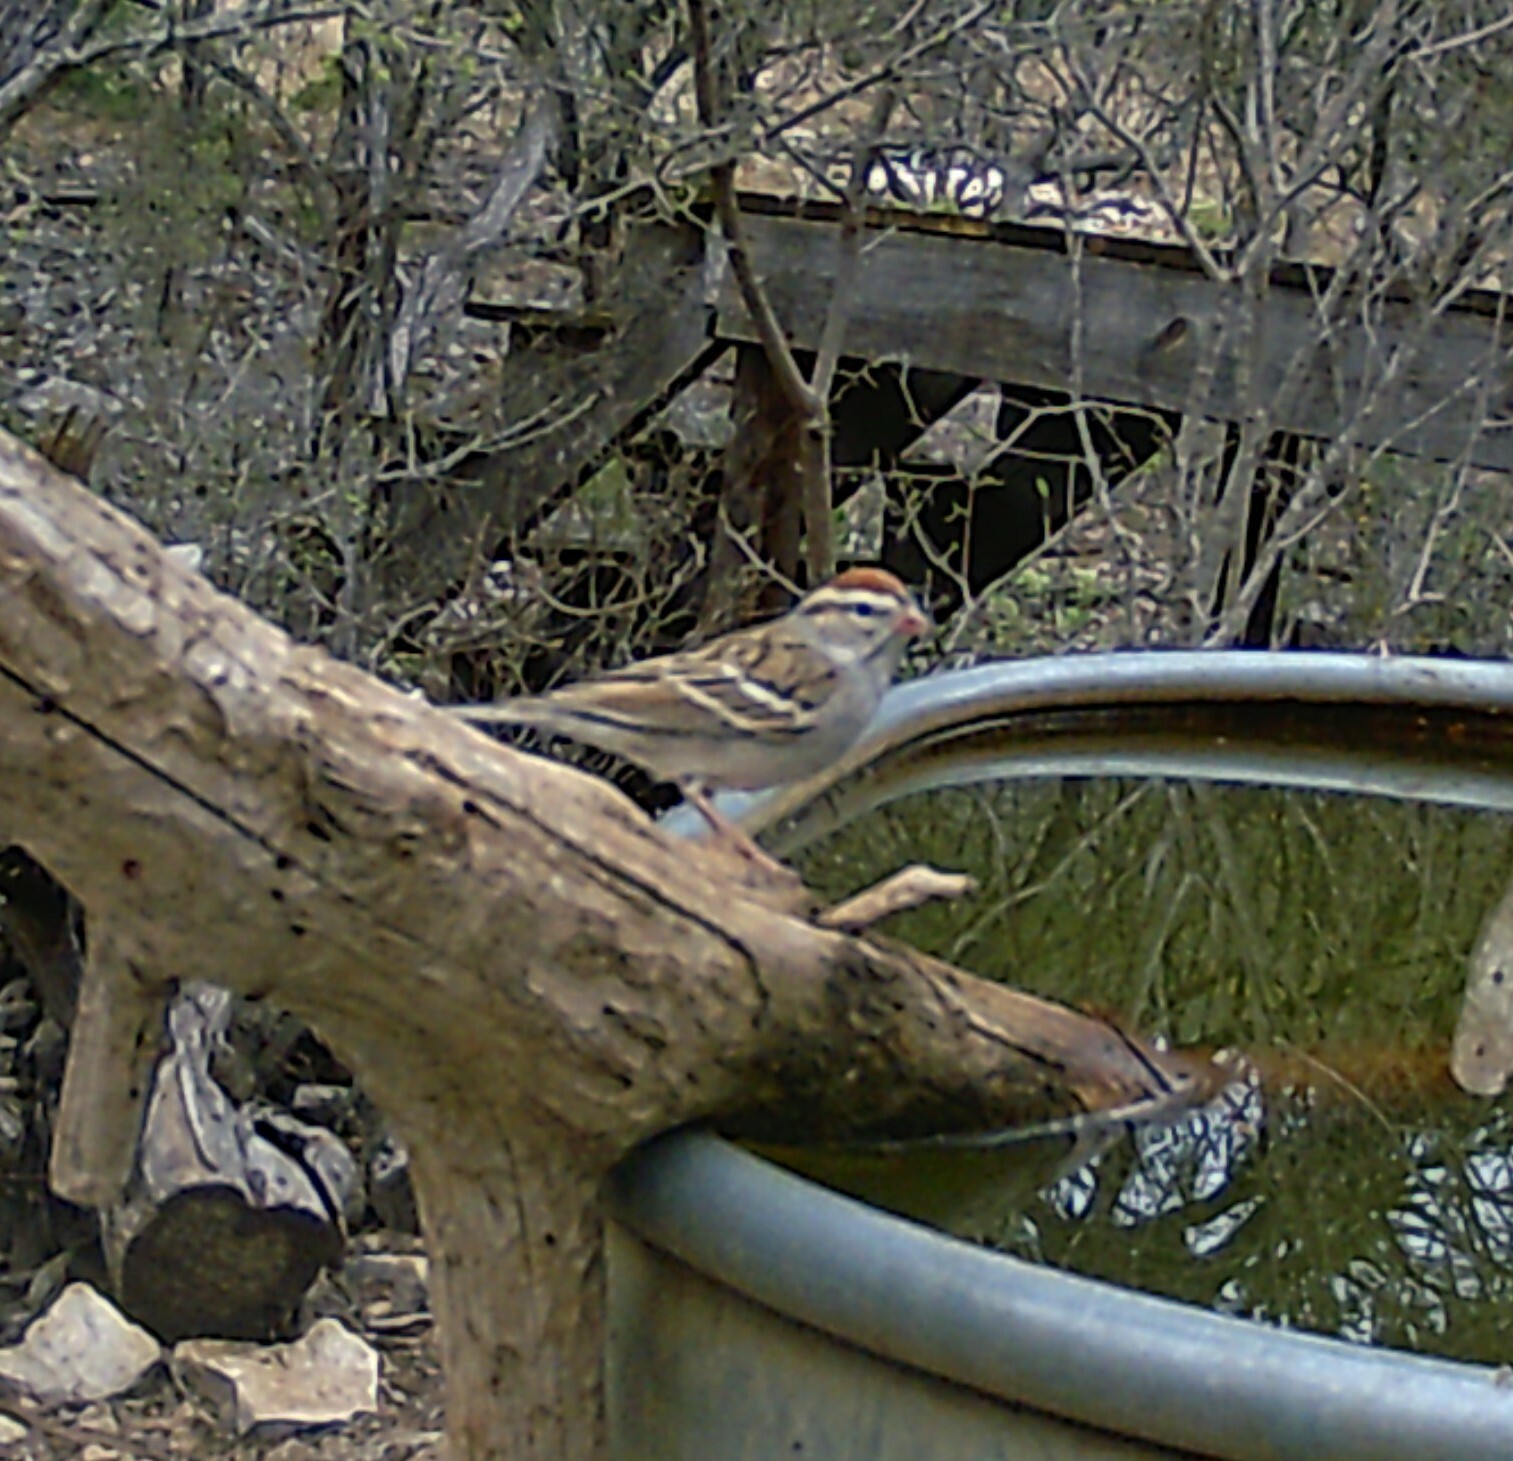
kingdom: Animalia
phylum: Chordata
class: Aves
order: Passeriformes
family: Passerellidae
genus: Spizella
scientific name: Spizella passerina
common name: Chipping sparrow
